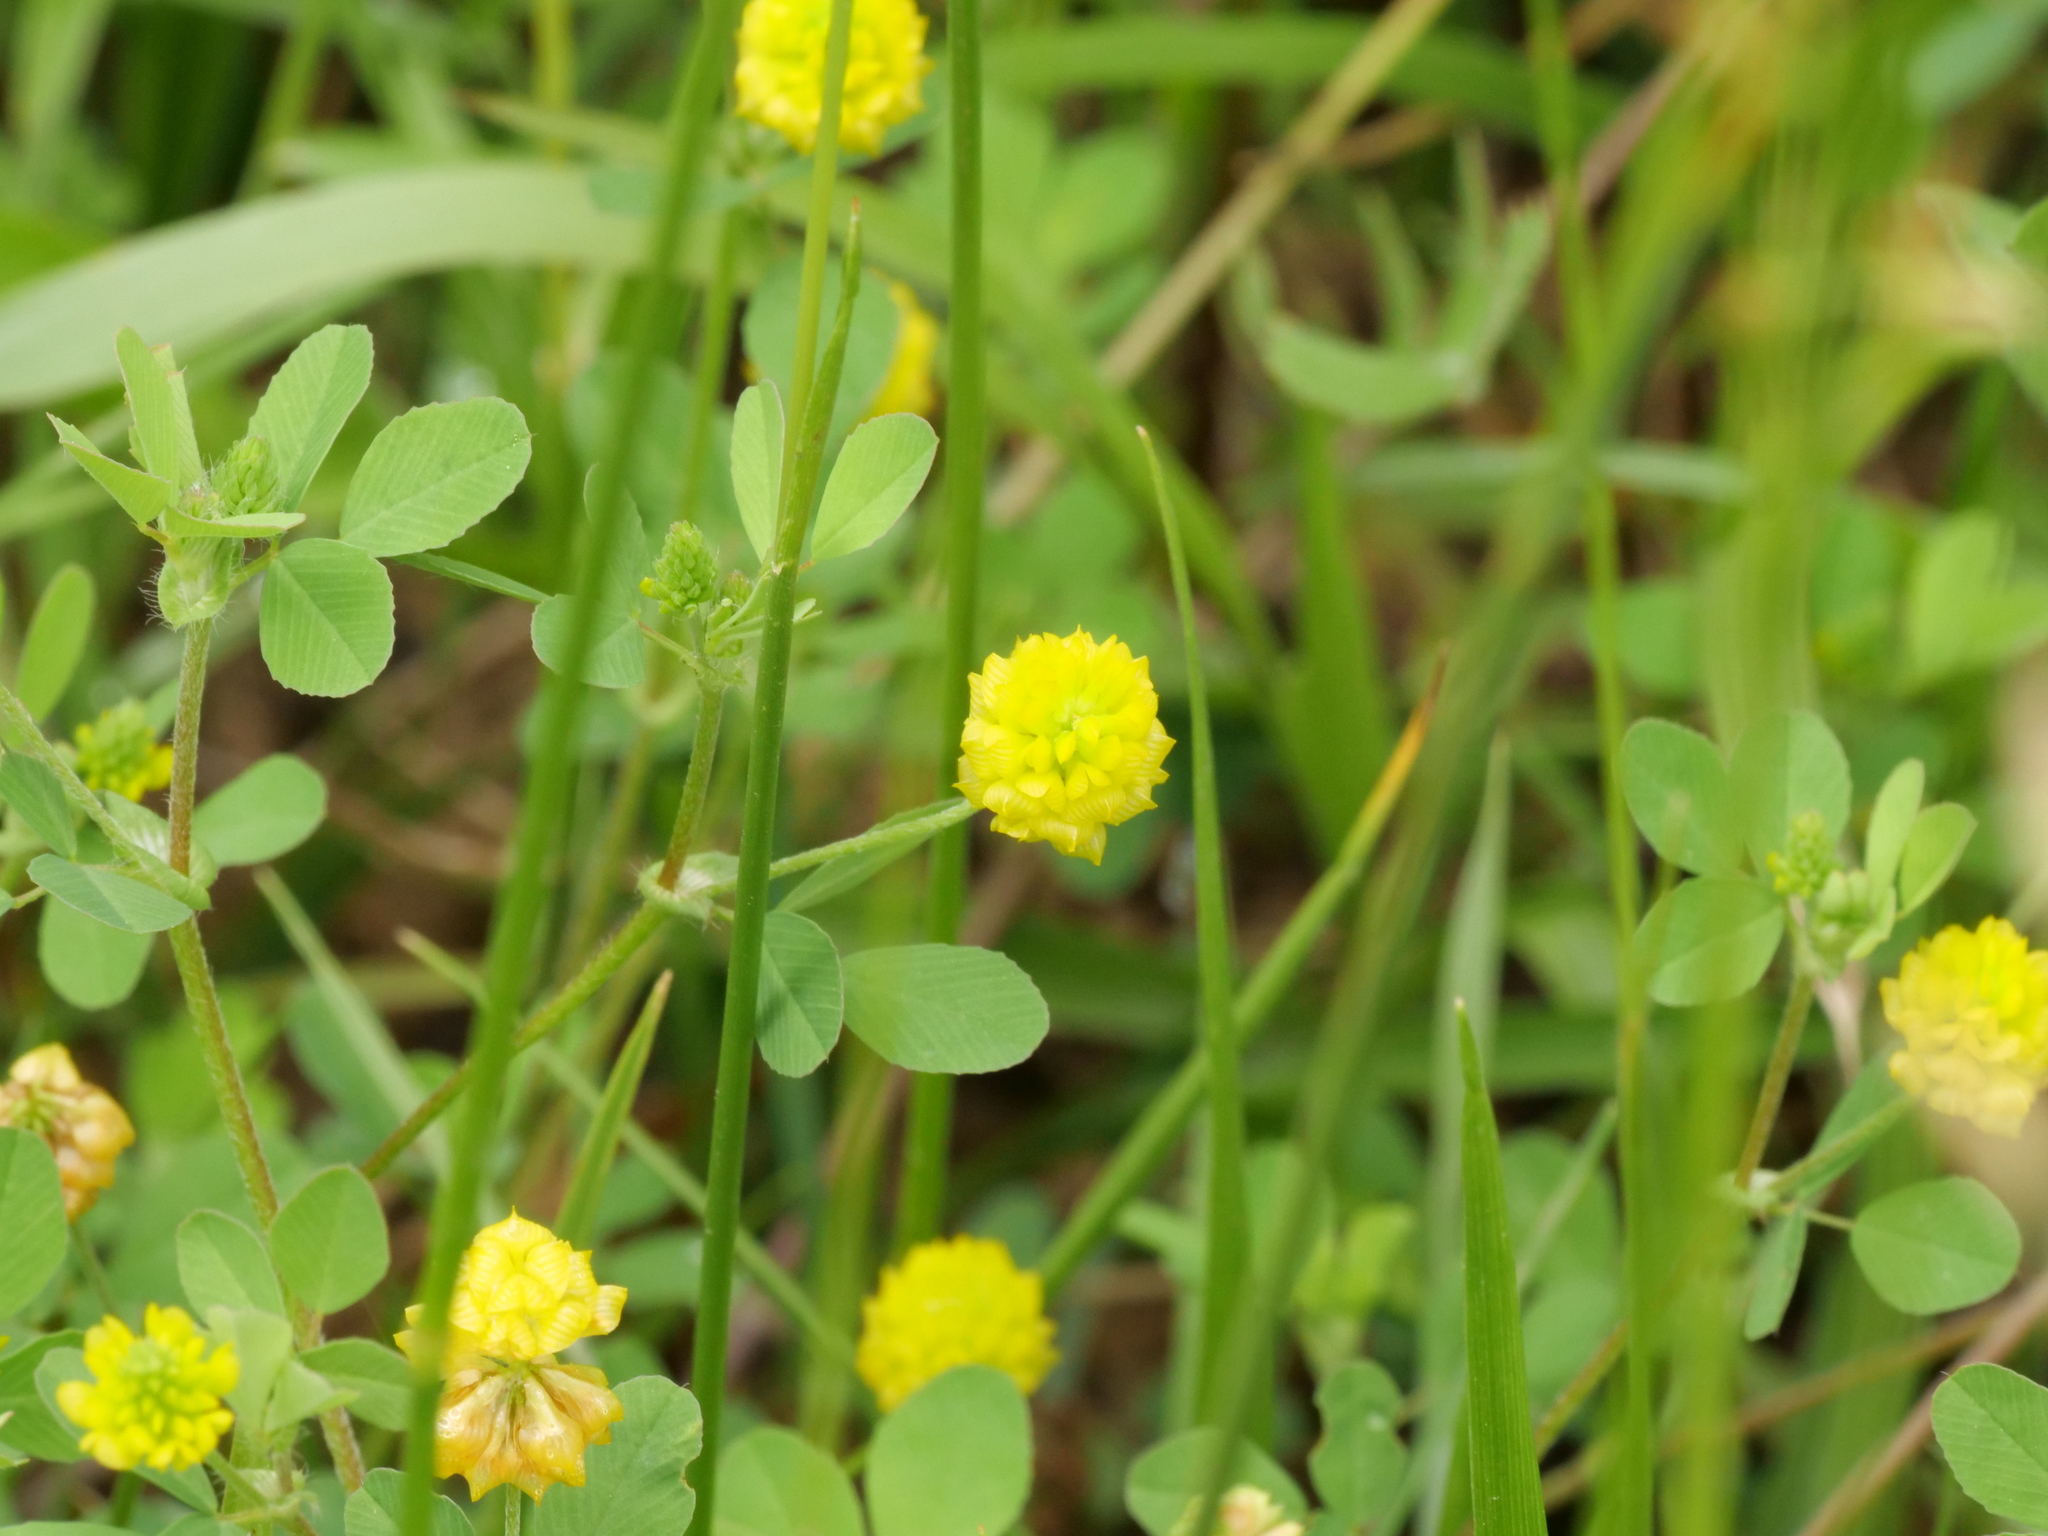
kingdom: Plantae
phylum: Tracheophyta
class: Magnoliopsida
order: Fabales
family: Fabaceae
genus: Trifolium
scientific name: Trifolium campestre
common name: Field clover
